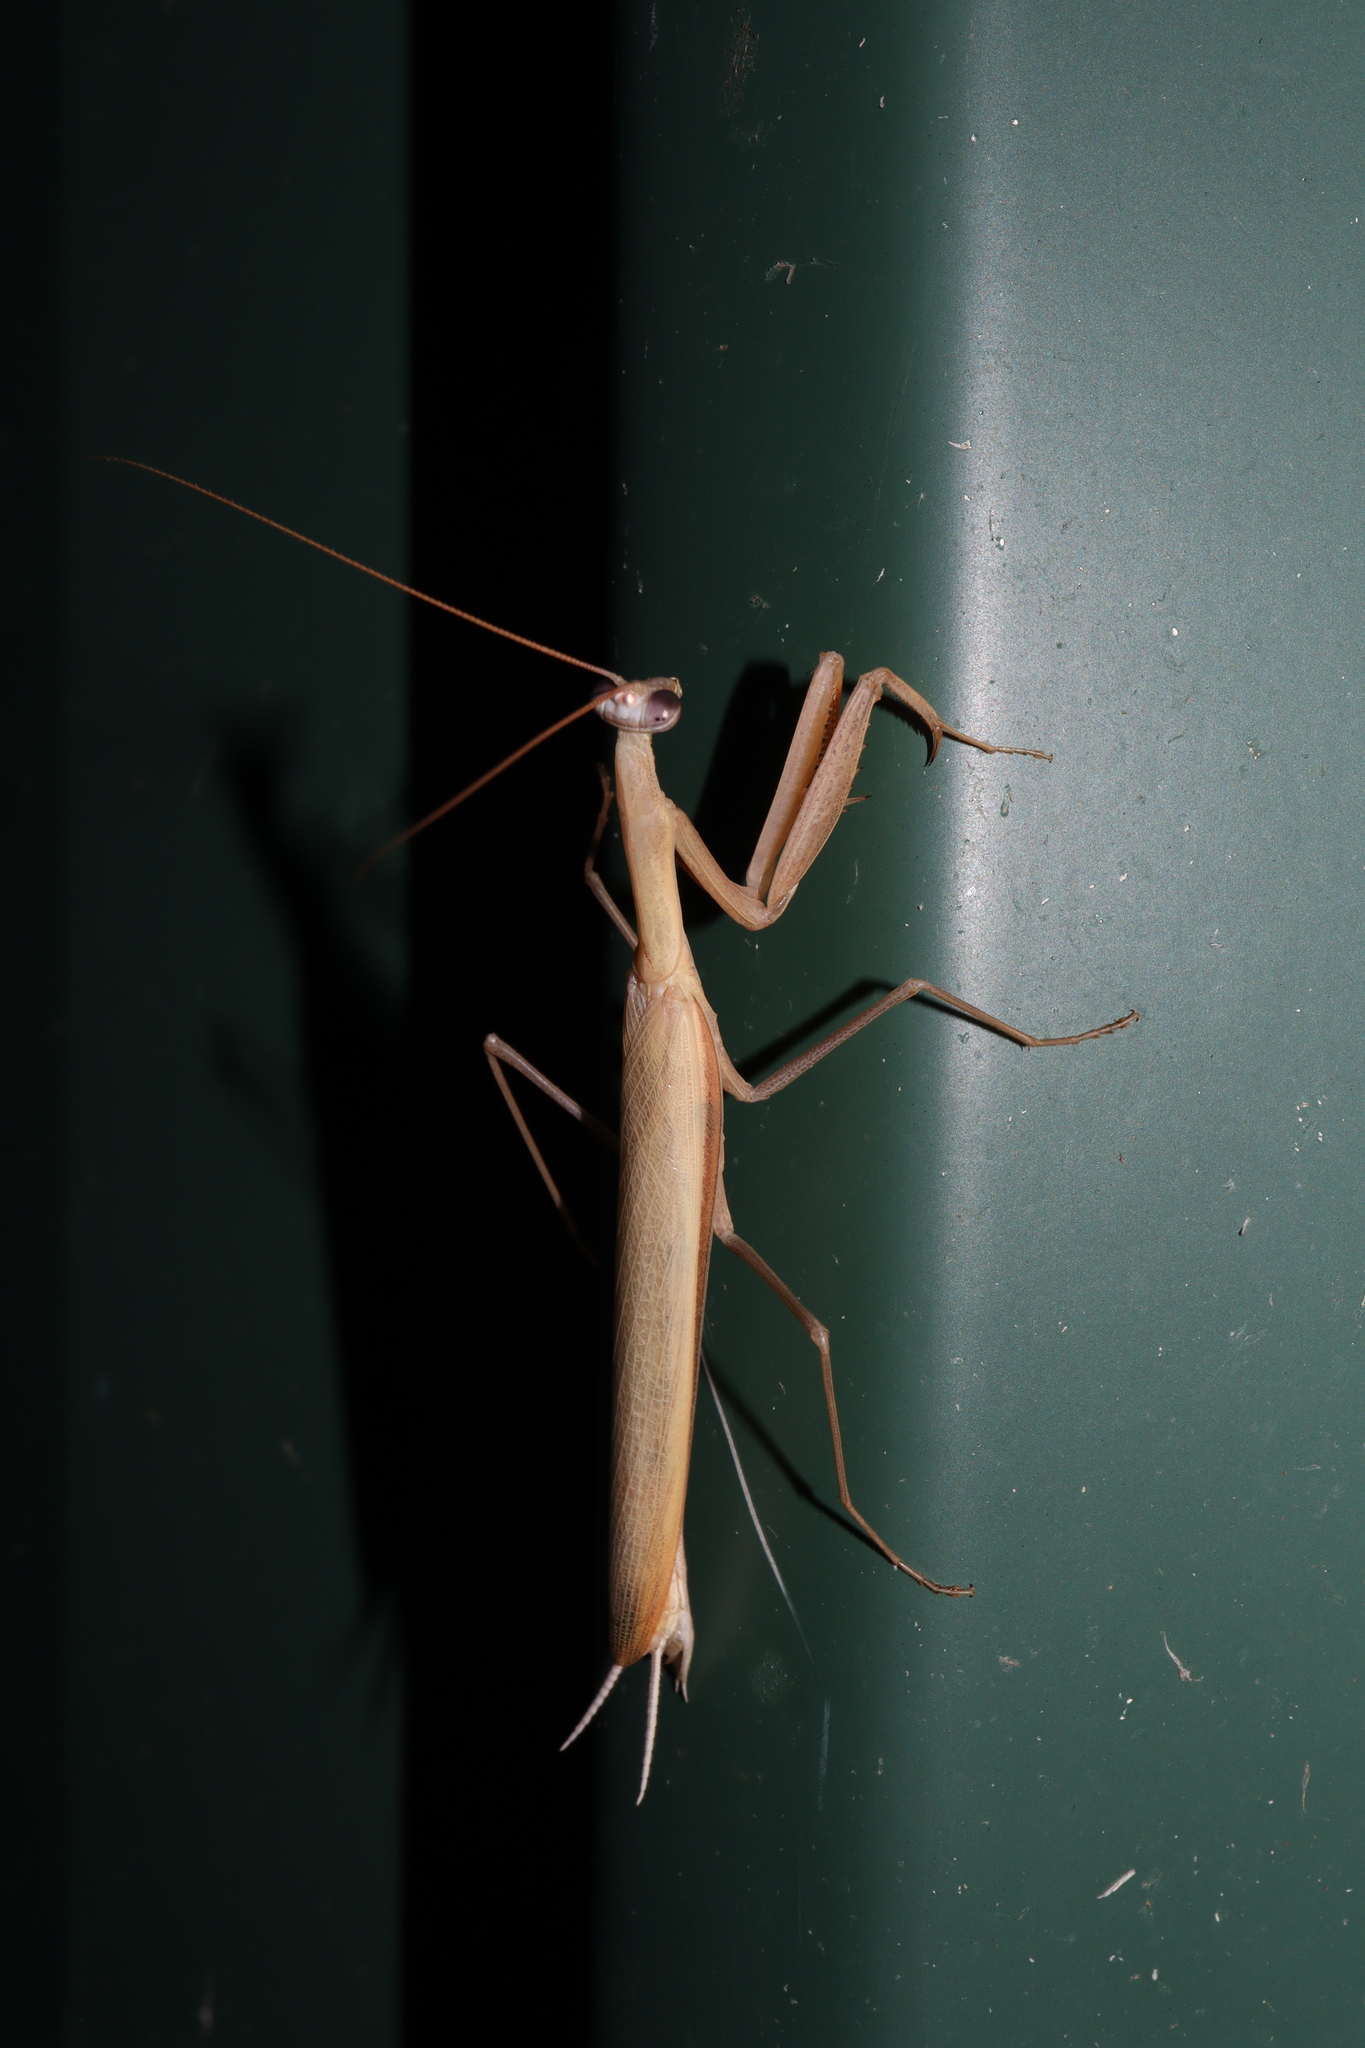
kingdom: Animalia
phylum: Arthropoda
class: Insecta
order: Mantodea
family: Mantidae
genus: Mantis
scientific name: Mantis octospilota
